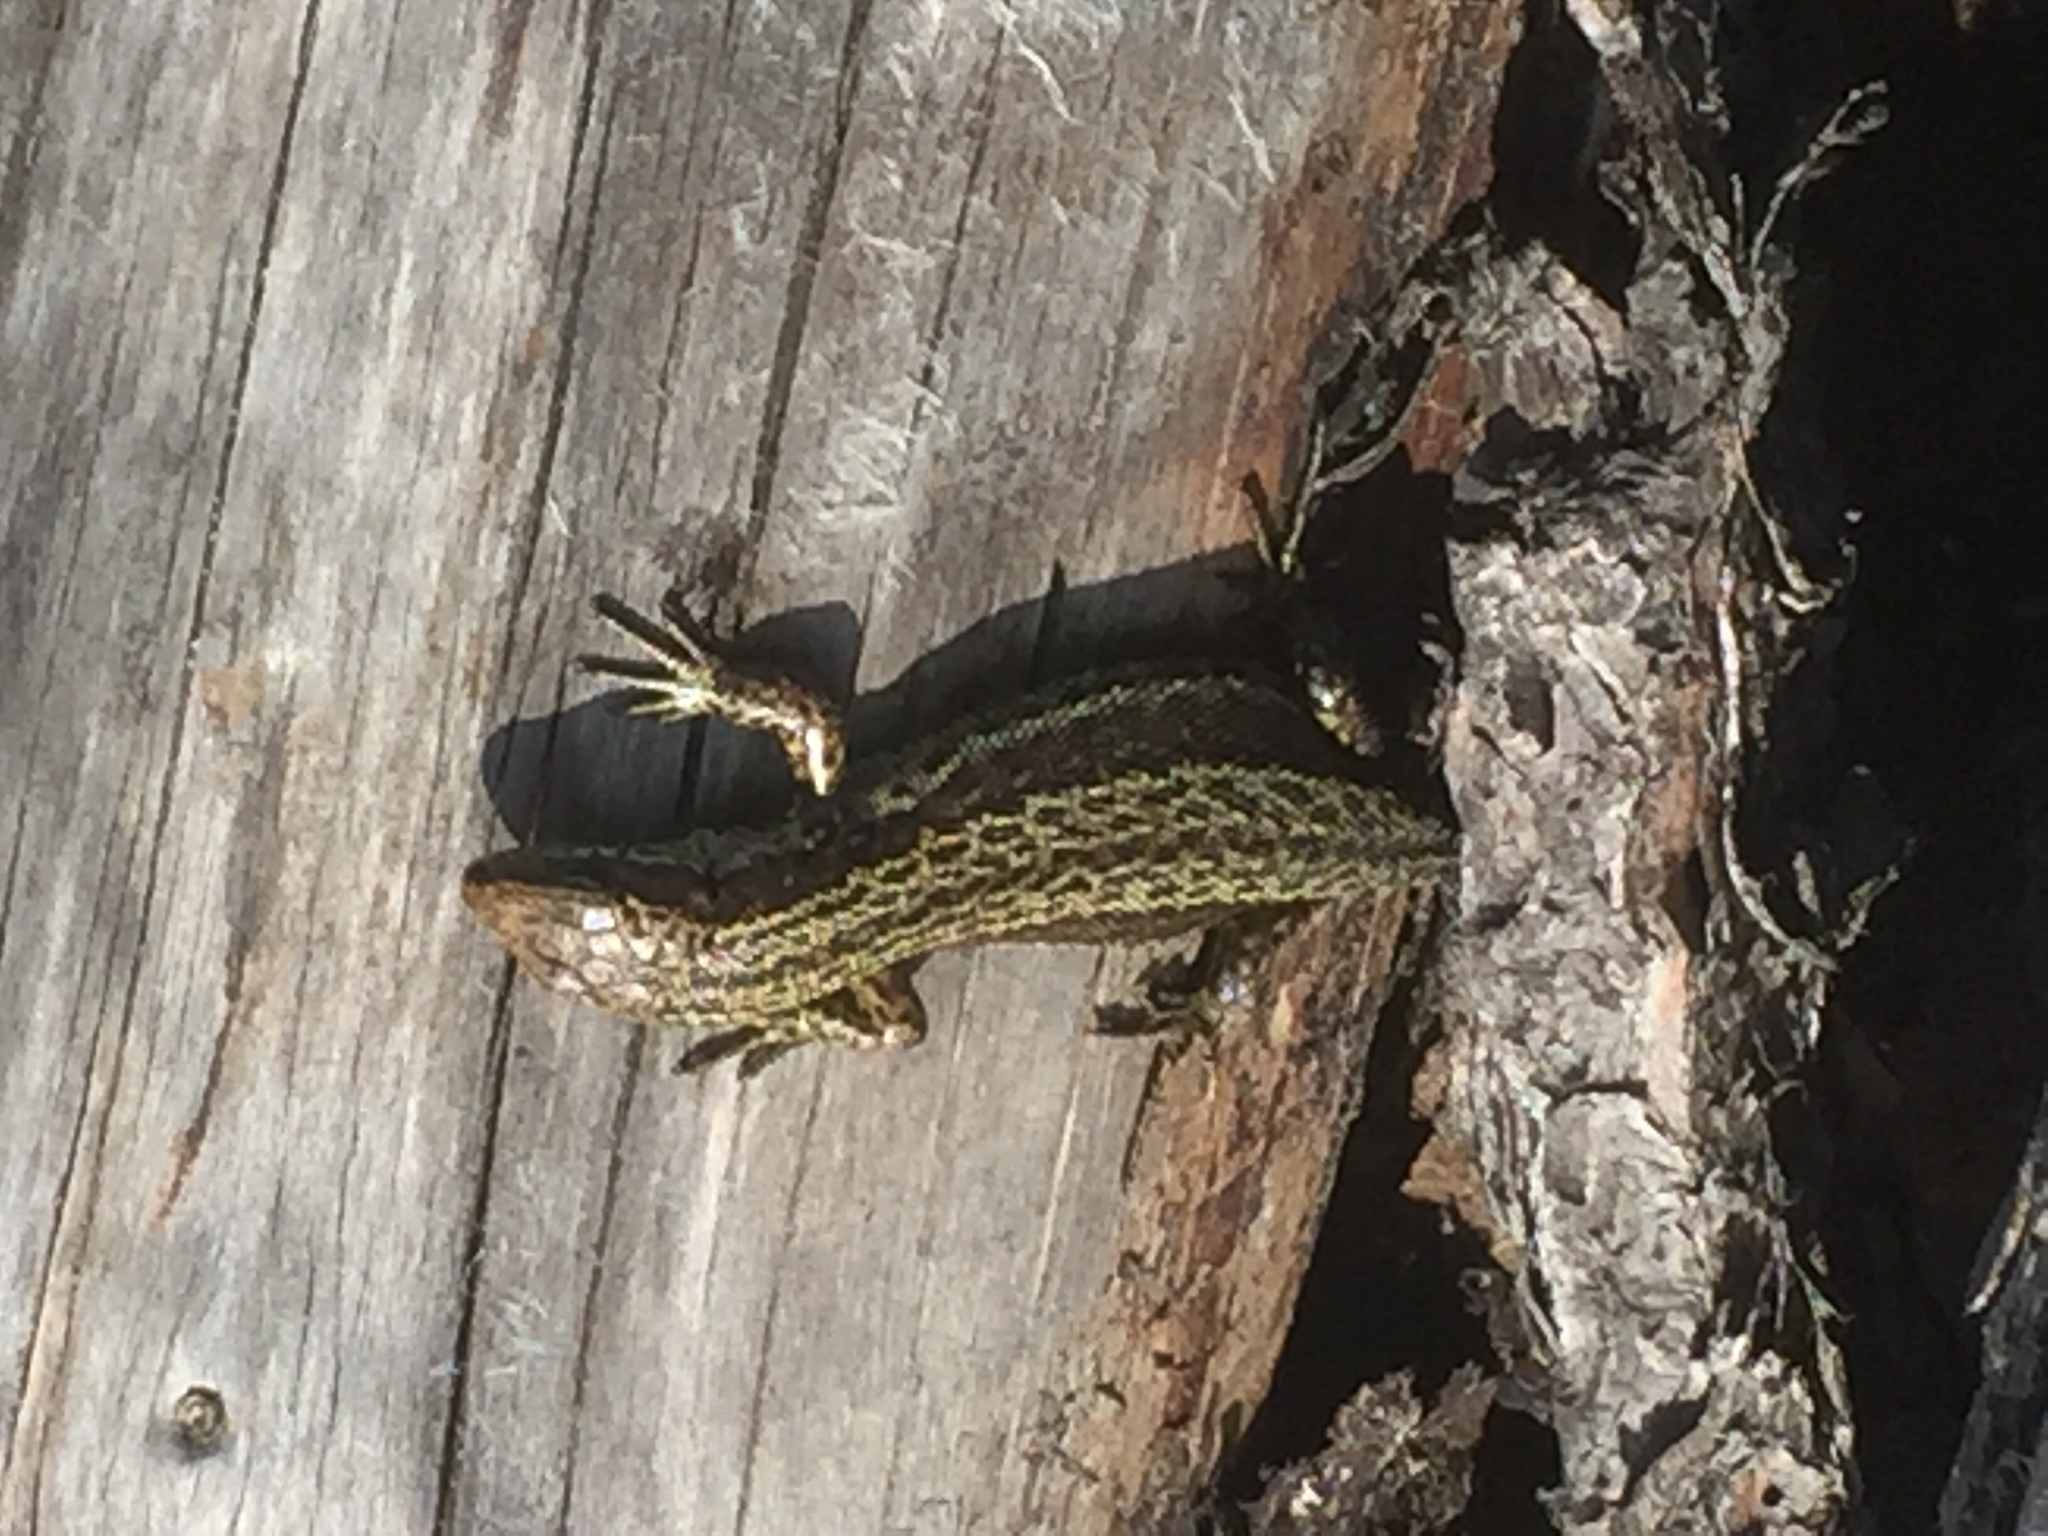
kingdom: Animalia
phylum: Chordata
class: Squamata
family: Lacertidae
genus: Zootoca
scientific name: Zootoca vivipara
